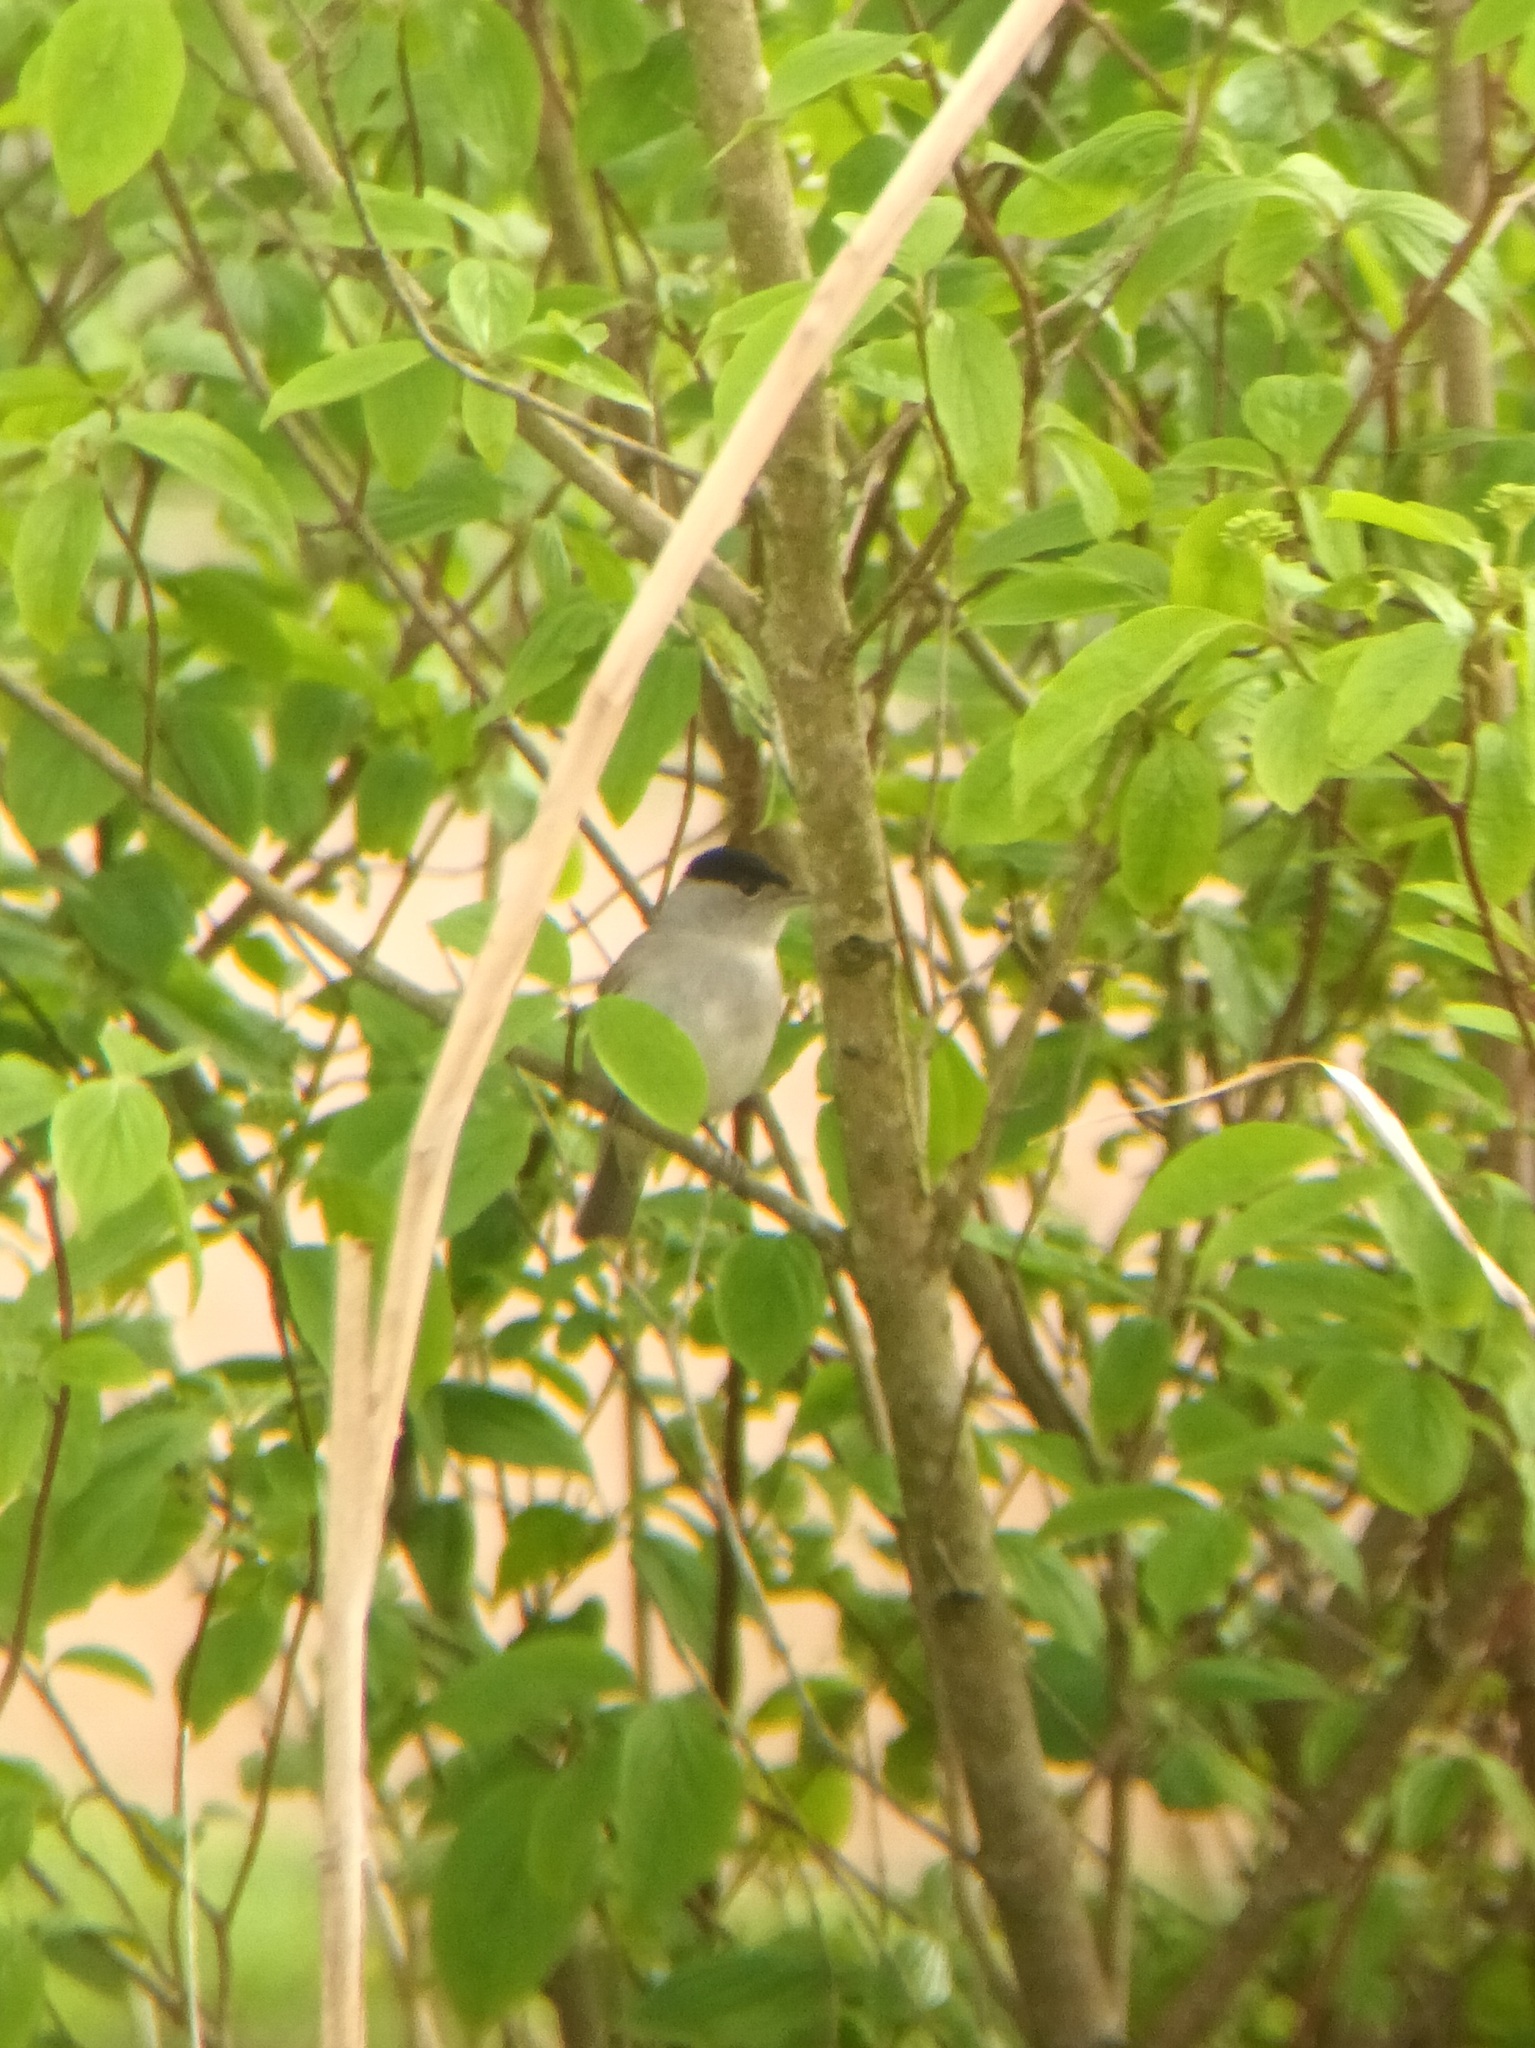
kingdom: Animalia
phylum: Chordata
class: Aves
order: Passeriformes
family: Sylviidae
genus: Sylvia
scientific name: Sylvia atricapilla
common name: Eurasian blackcap
